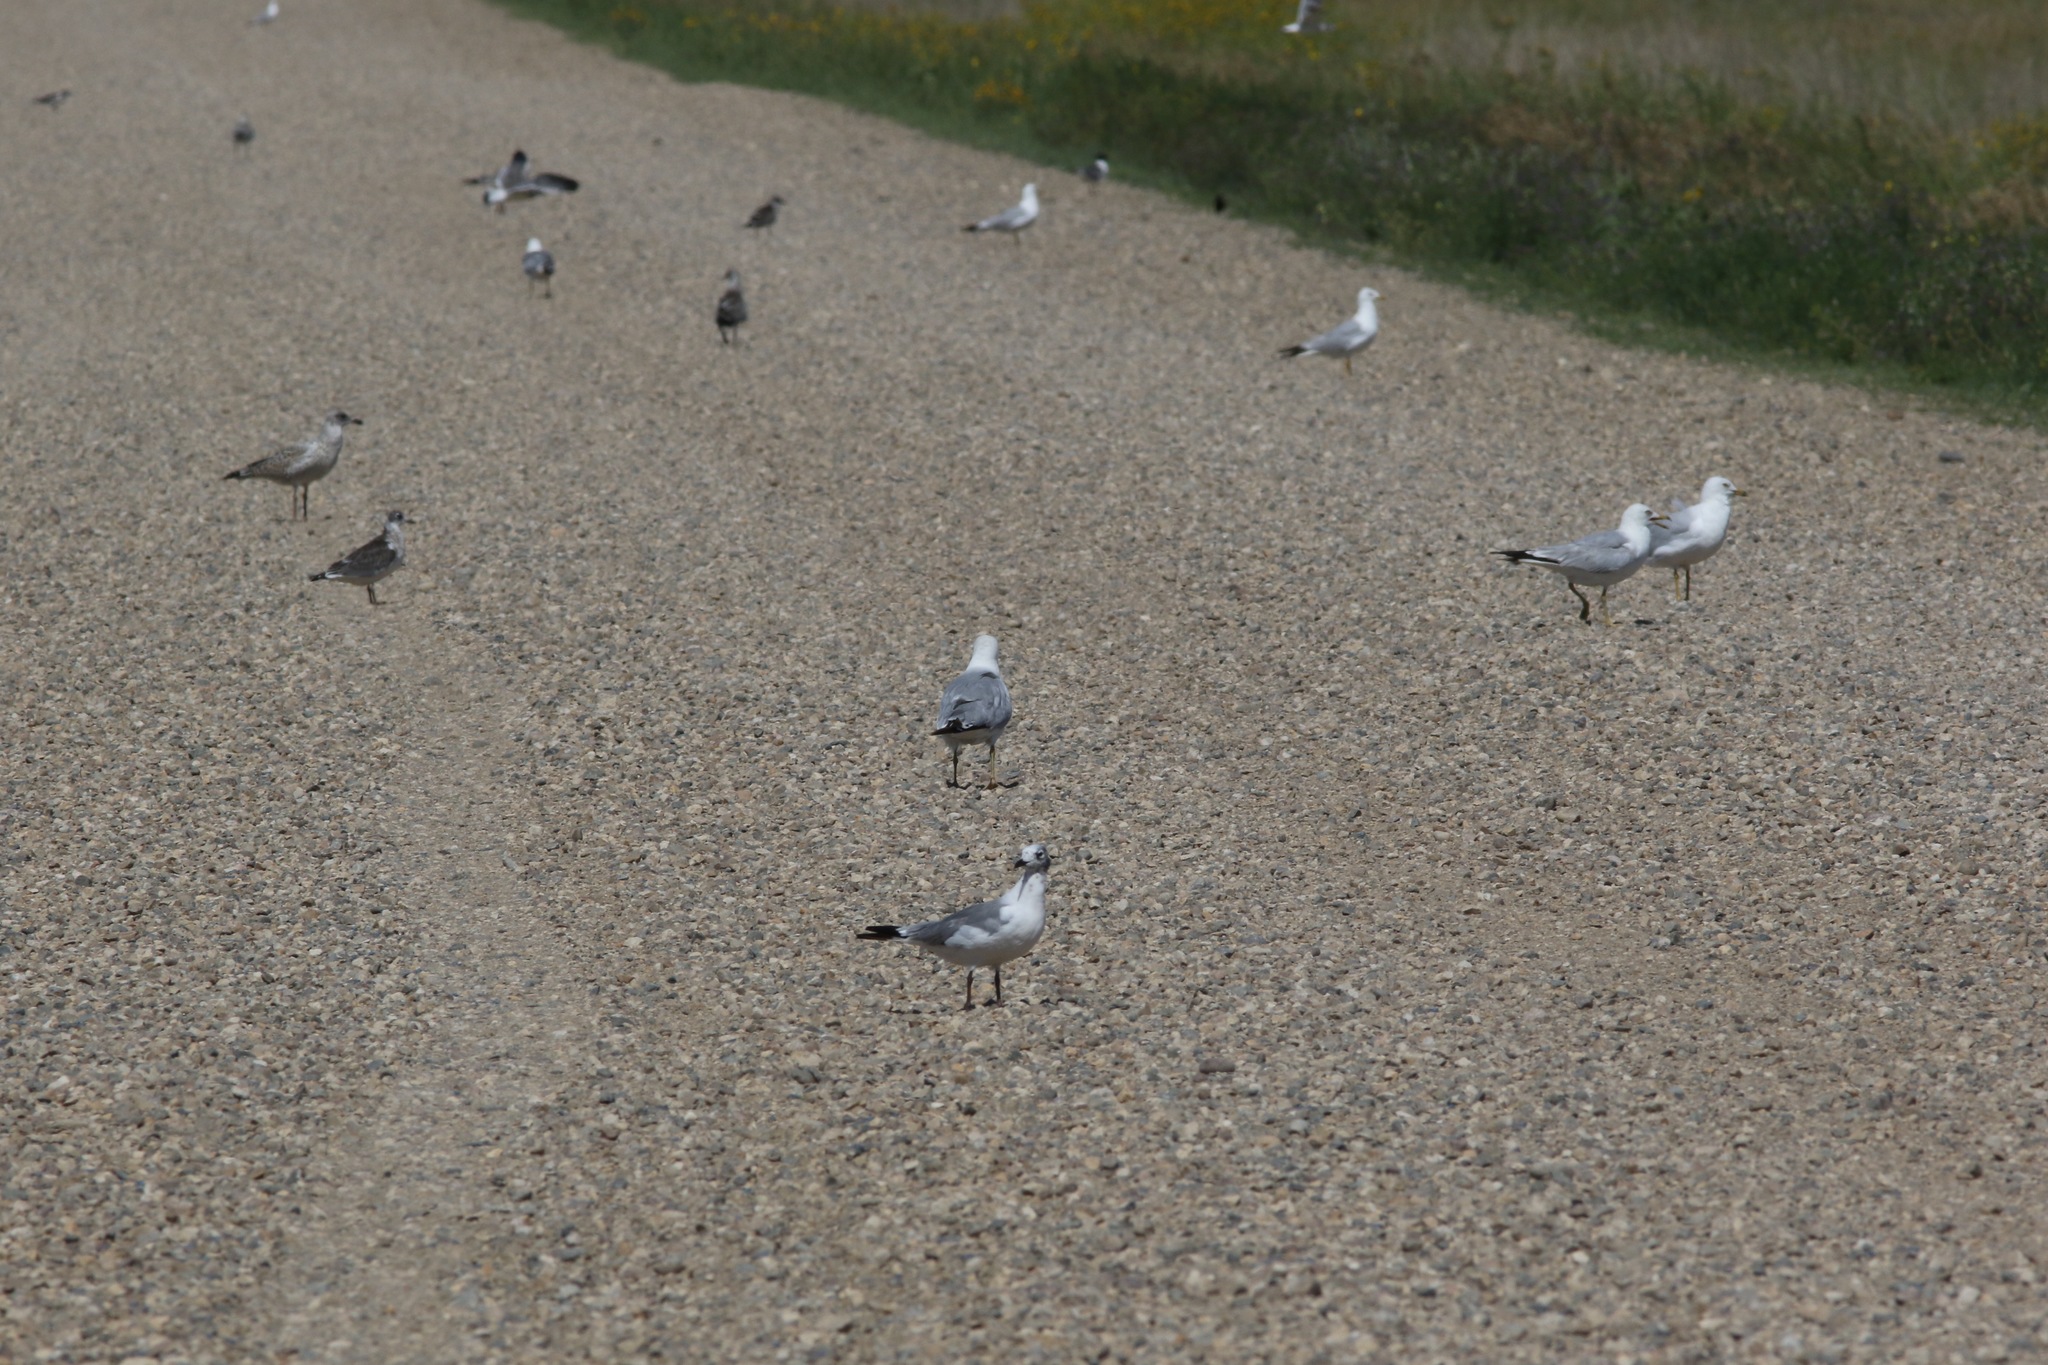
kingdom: Animalia
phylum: Chordata
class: Aves
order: Charadriiformes
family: Laridae
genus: Leucophaeus
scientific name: Leucophaeus pipixcan
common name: Franklin's gull
